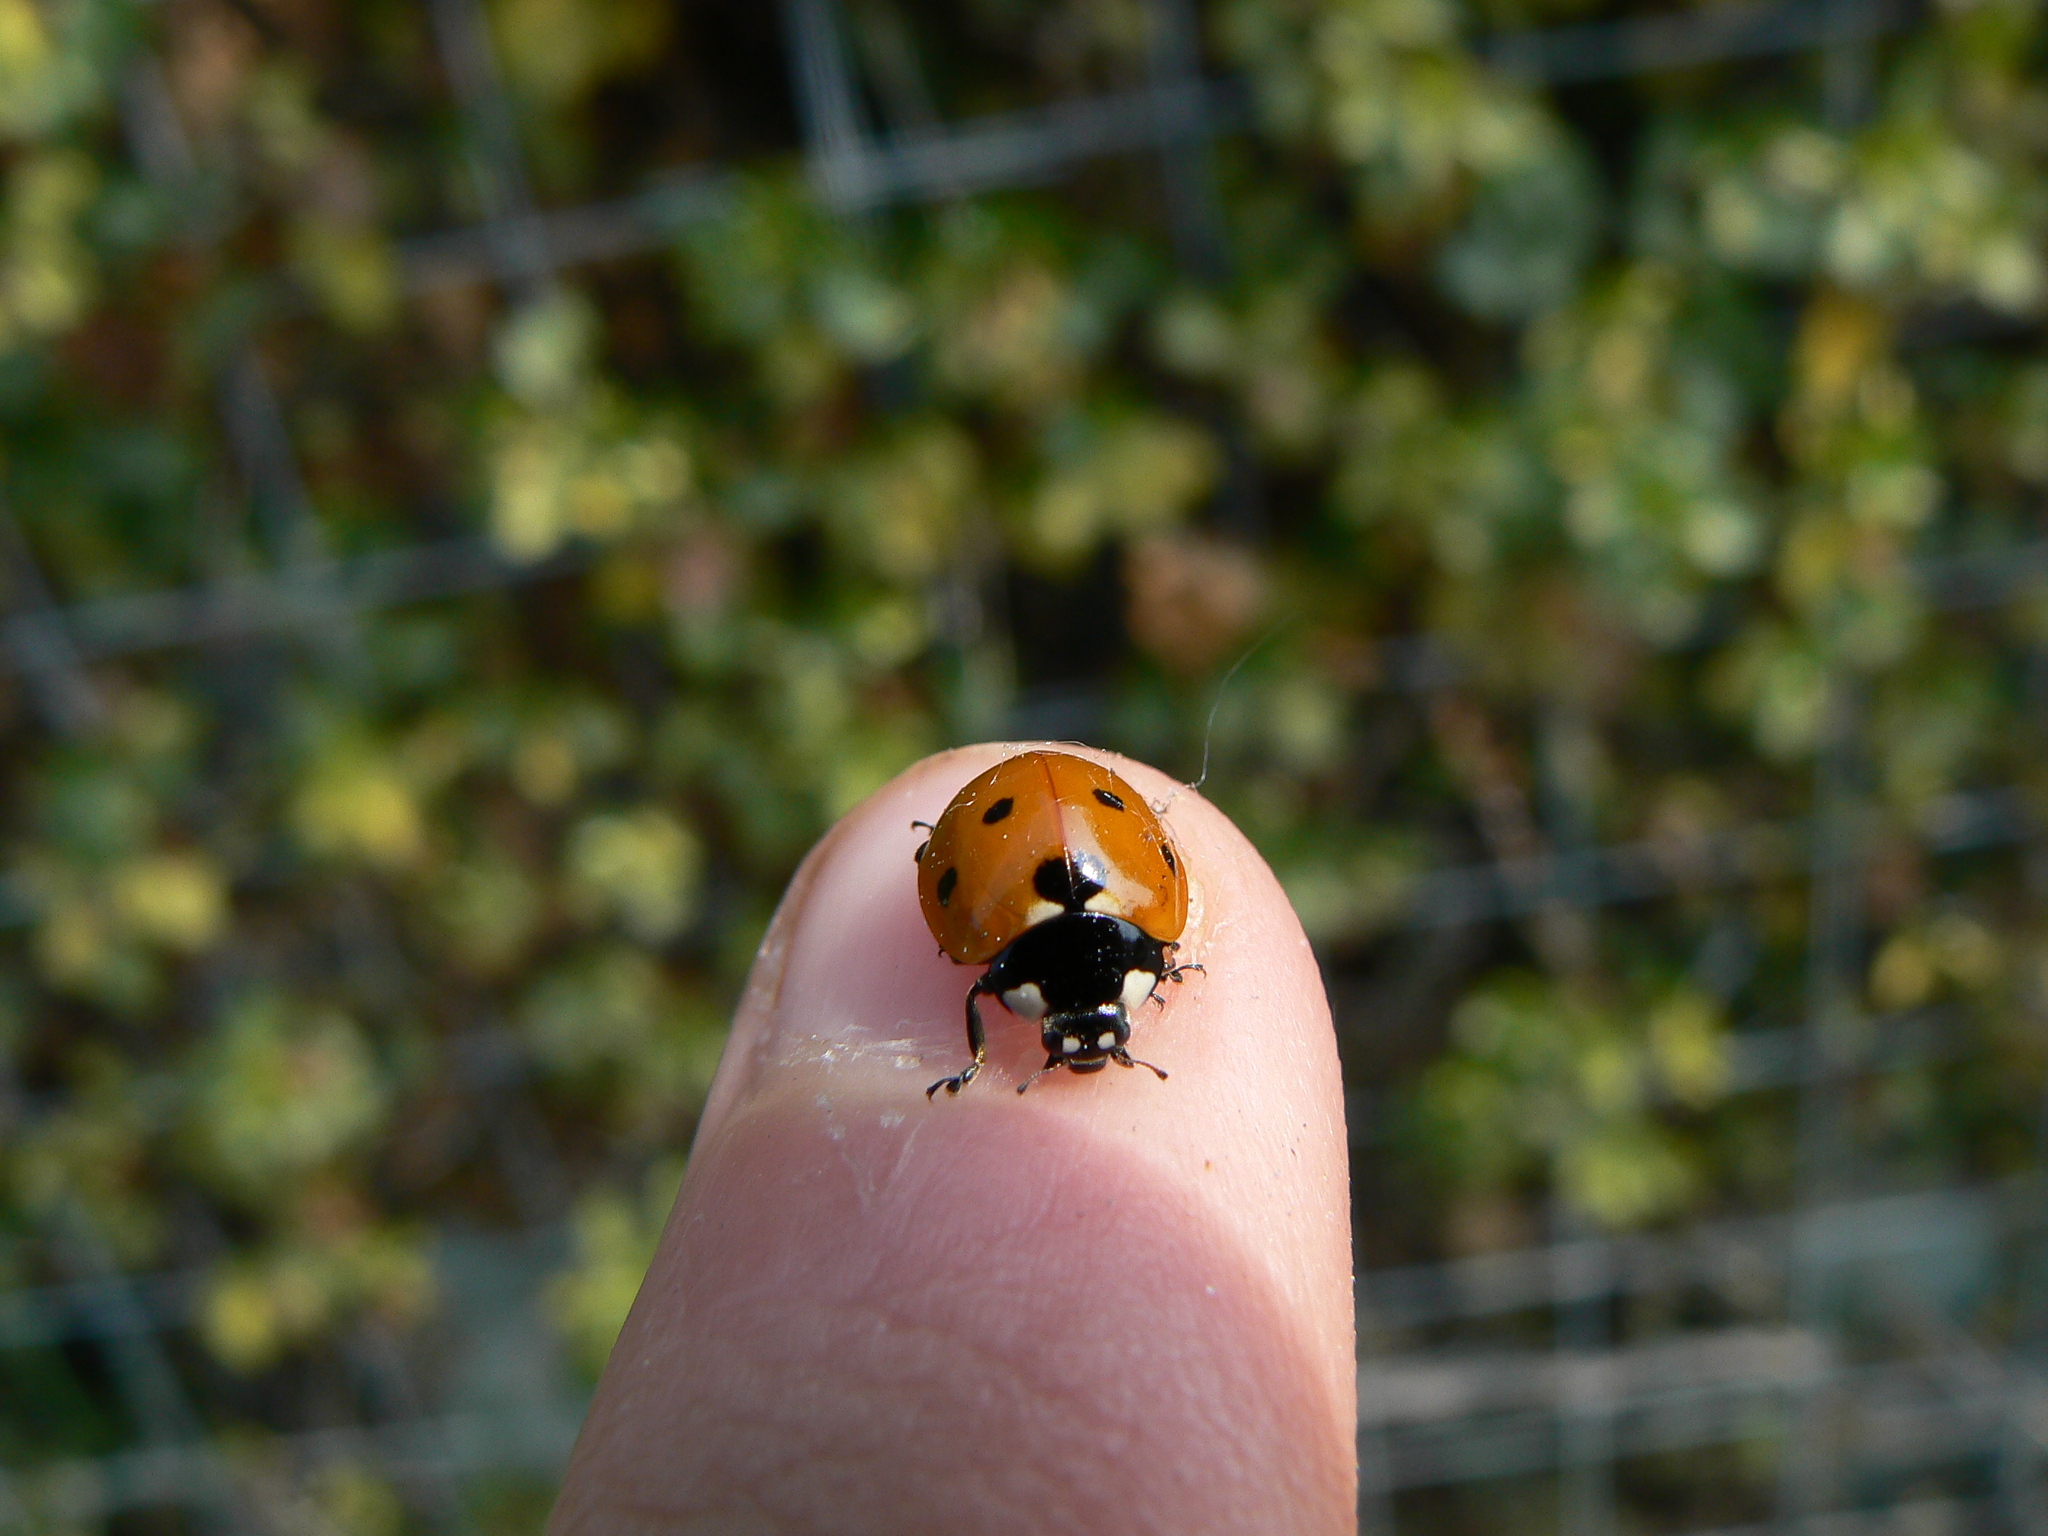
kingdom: Animalia
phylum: Arthropoda
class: Insecta
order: Coleoptera
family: Coccinellidae
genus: Coccinella
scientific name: Coccinella septempunctata
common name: Sevenspotted lady beetle
